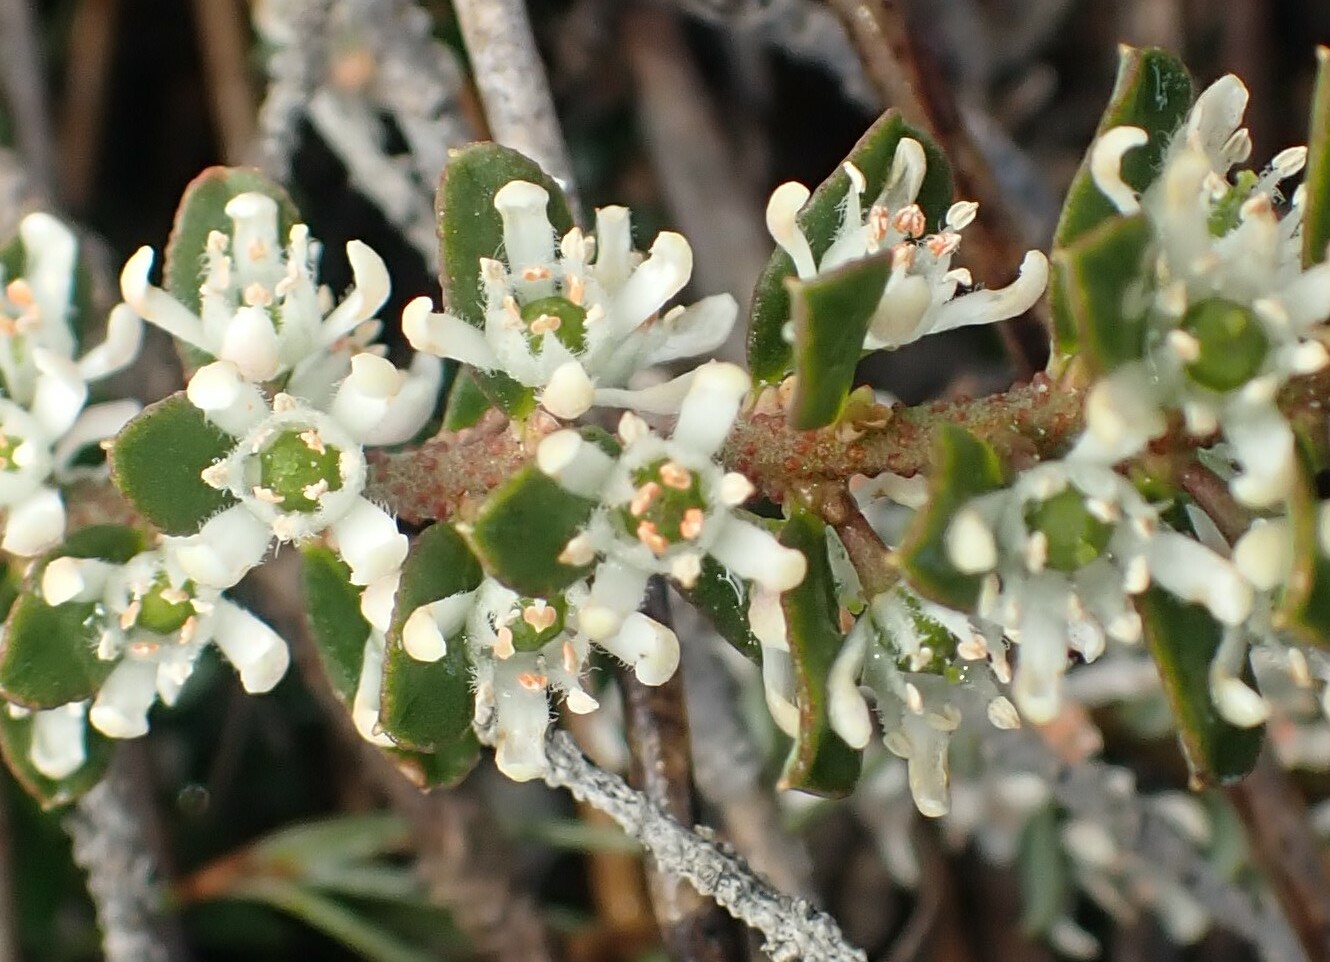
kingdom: Plantae
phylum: Tracheophyta
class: Magnoliopsida
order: Sapindales
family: Rutaceae
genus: Philotheca
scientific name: Philotheca virgata
